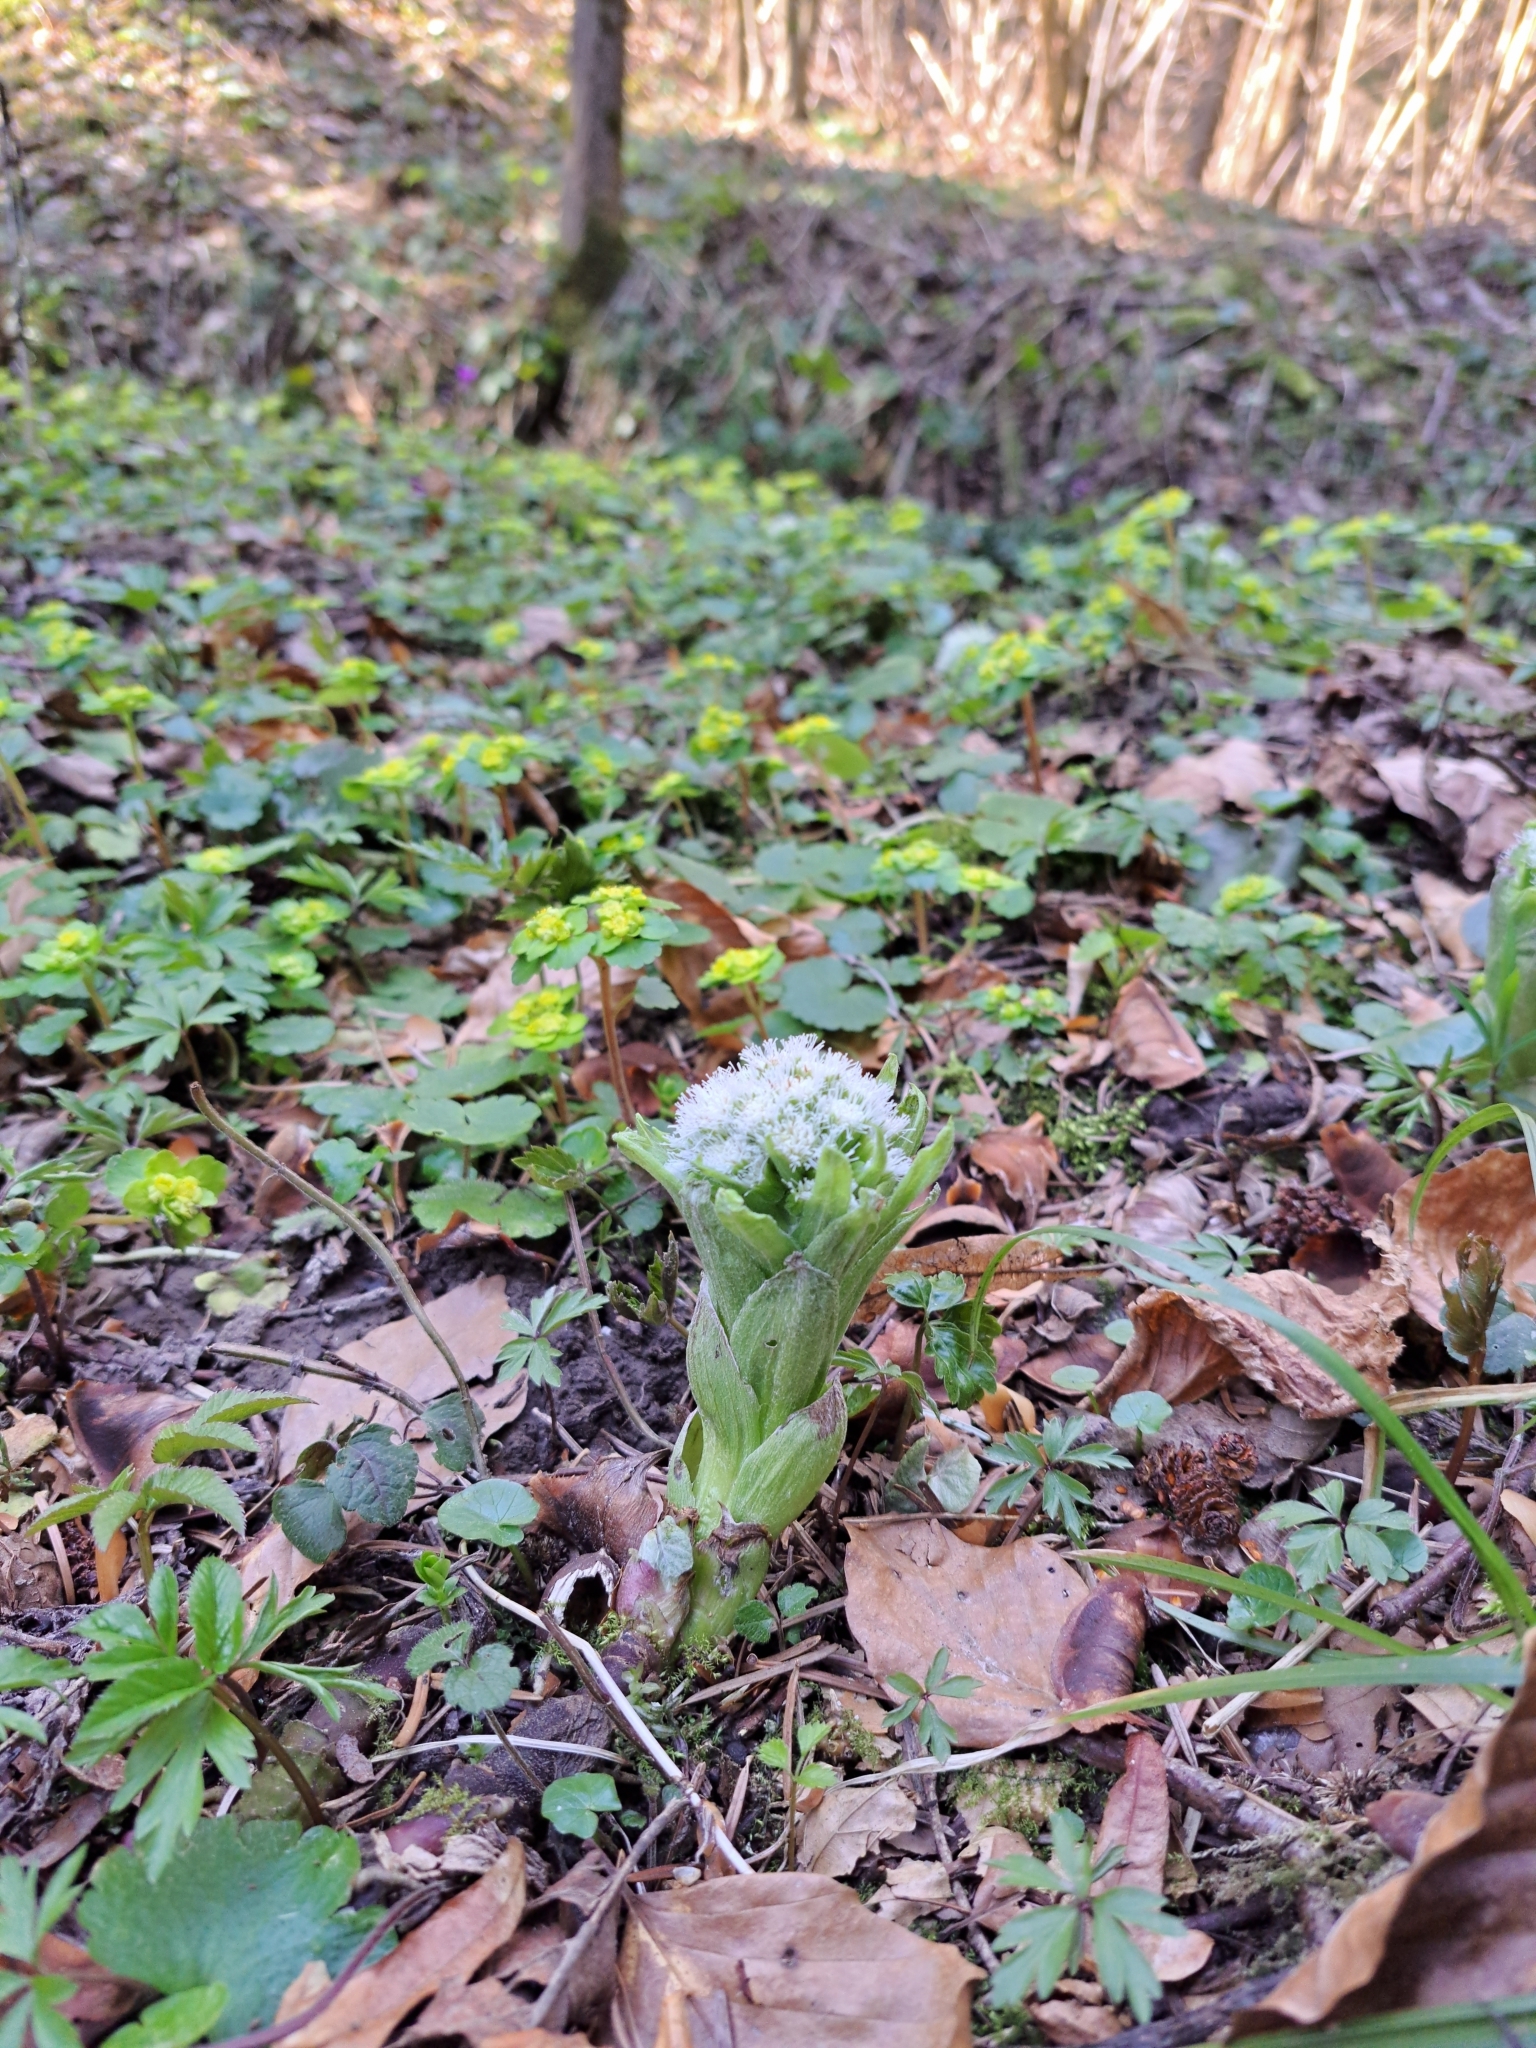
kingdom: Plantae
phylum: Tracheophyta
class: Magnoliopsida
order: Asterales
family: Asteraceae
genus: Petasites
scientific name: Petasites albus
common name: White butterbur
